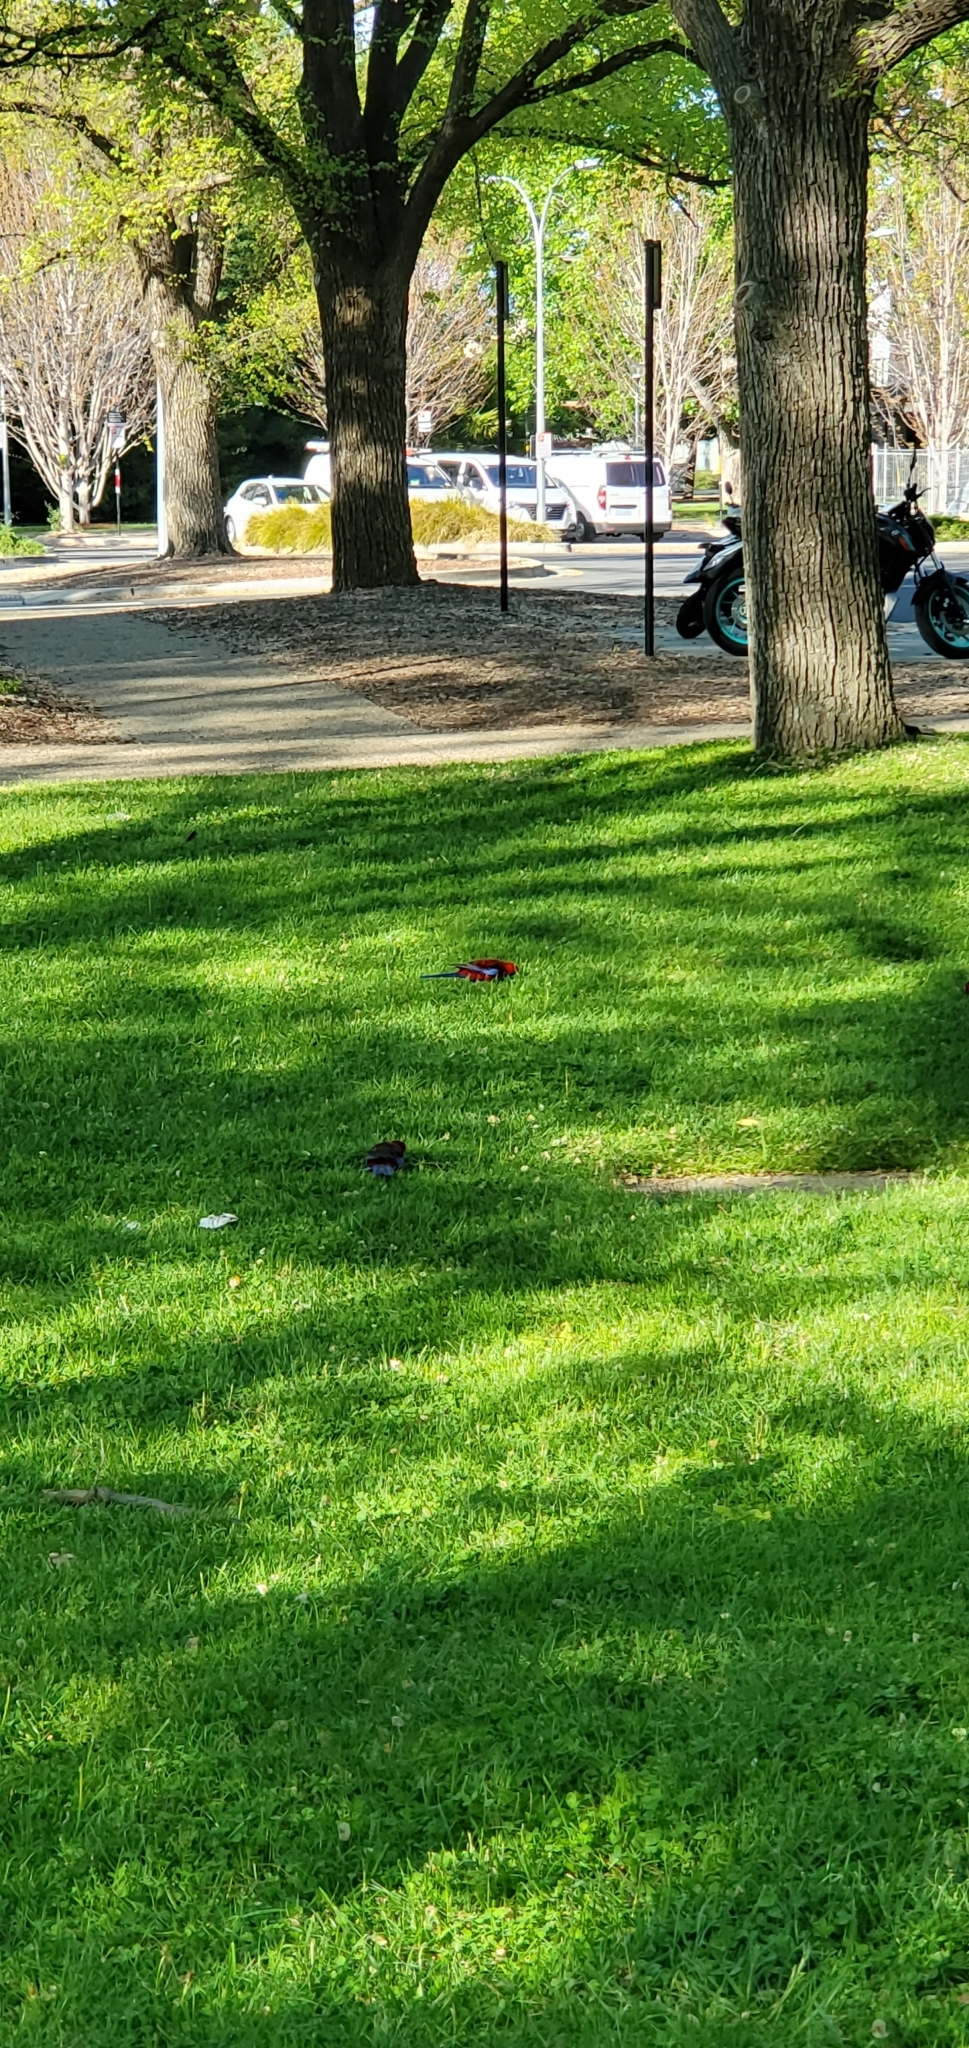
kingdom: Animalia
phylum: Chordata
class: Aves
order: Psittaciformes
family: Psittacidae
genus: Platycercus
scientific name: Platycercus elegans
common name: Crimson rosella
